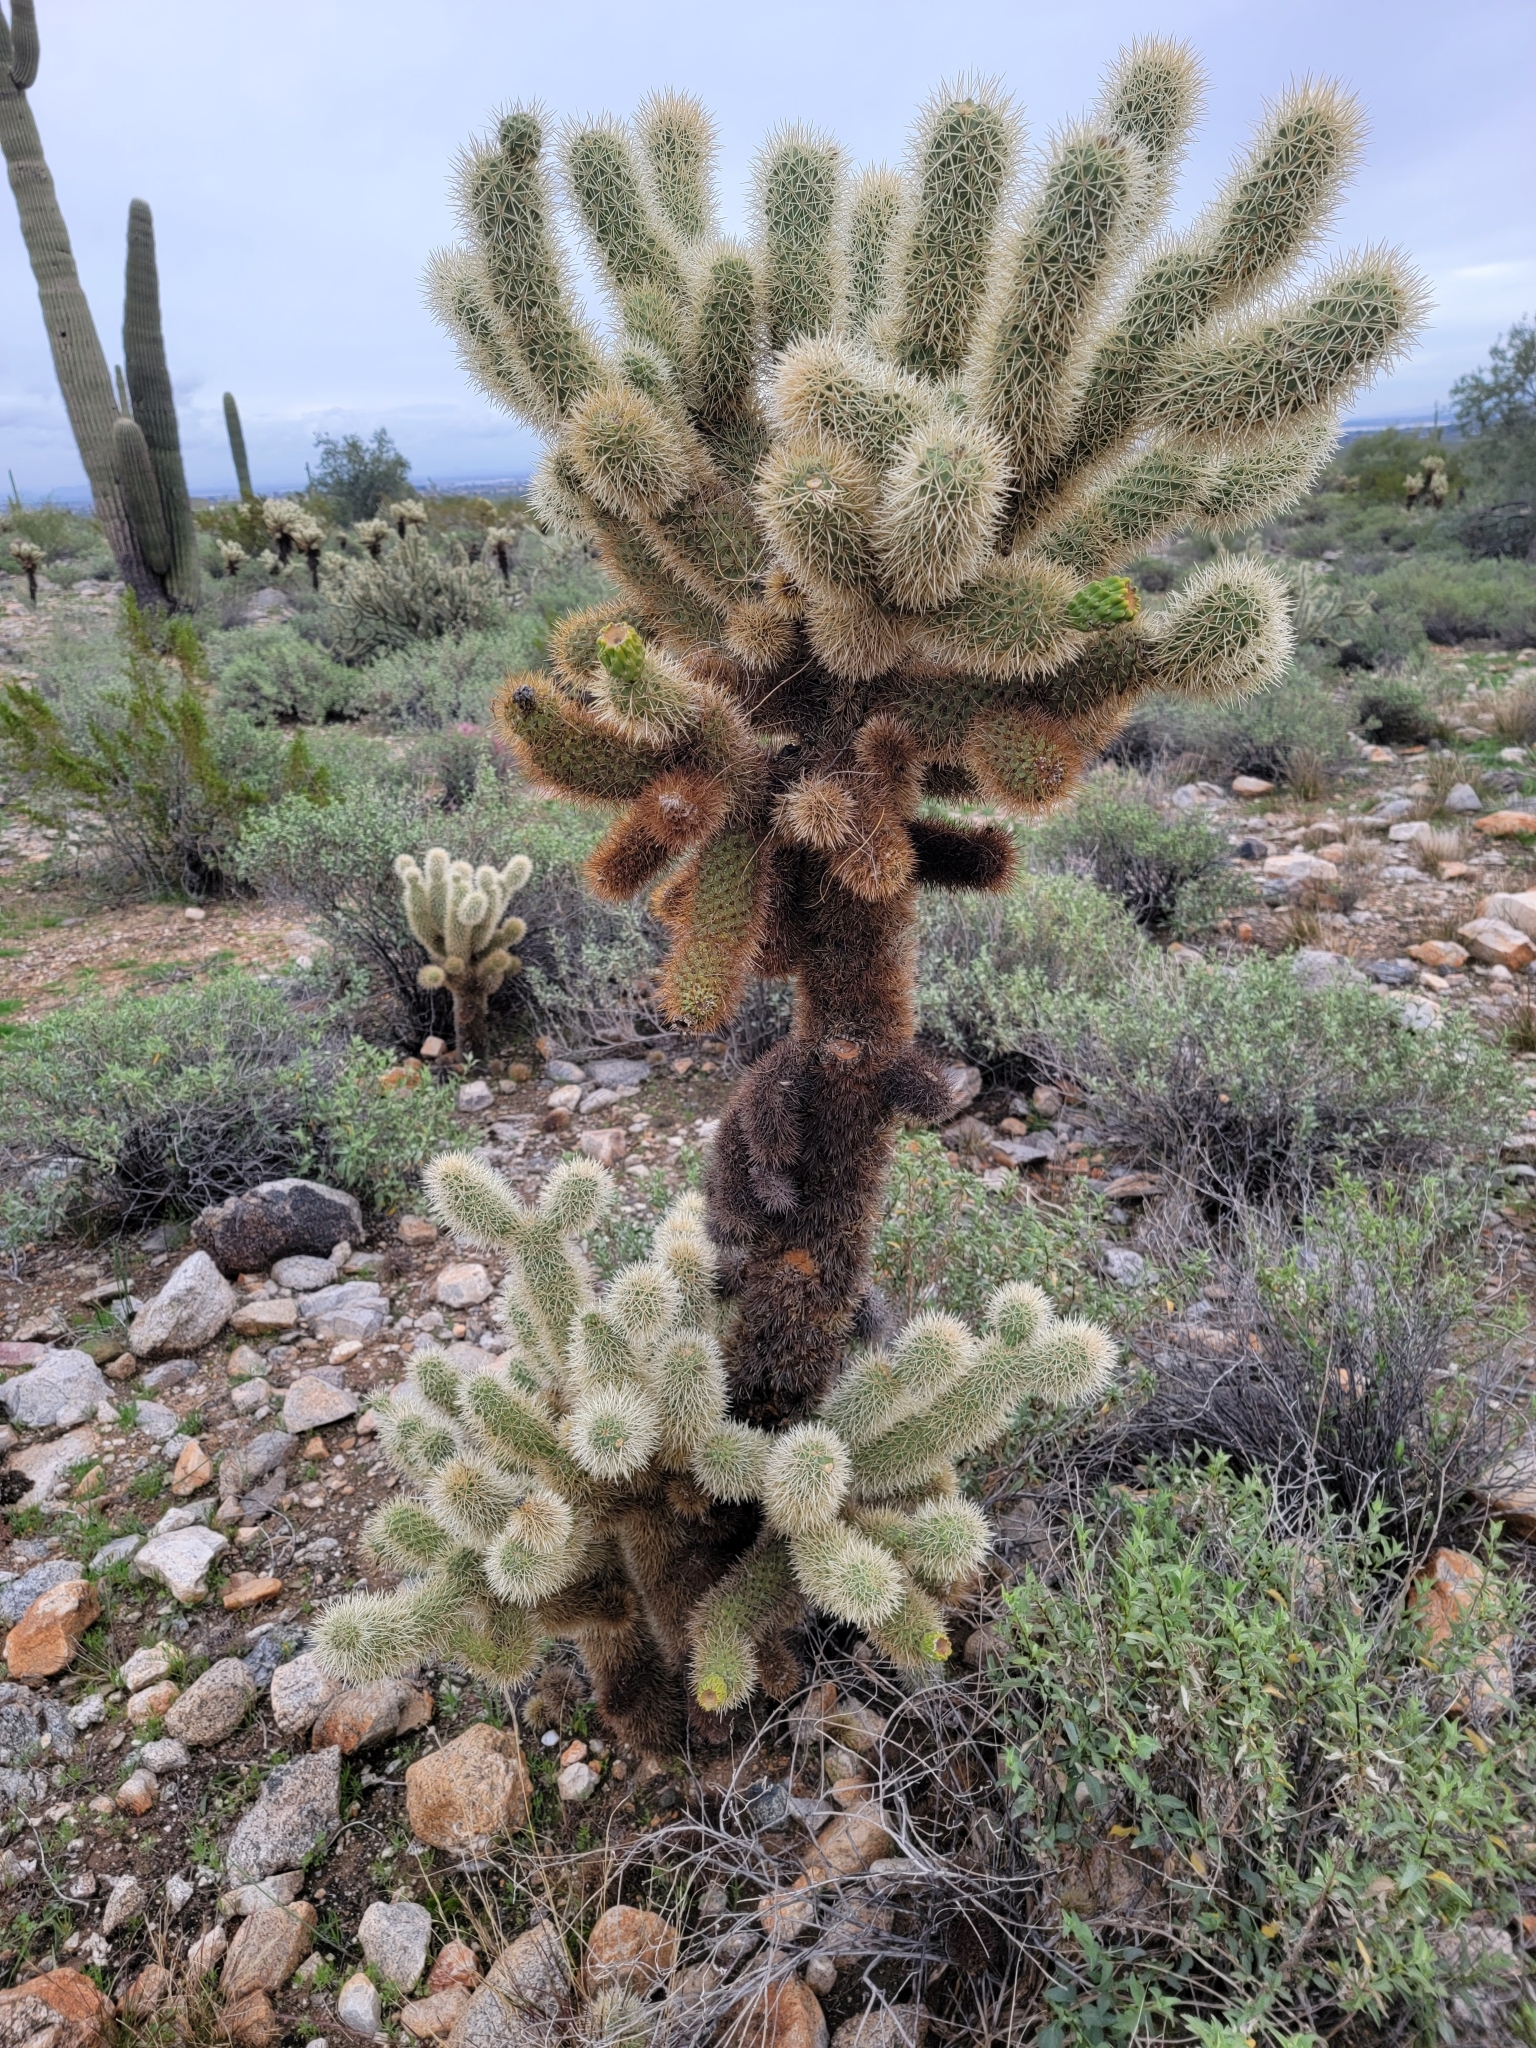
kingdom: Plantae
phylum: Tracheophyta
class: Magnoliopsida
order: Caryophyllales
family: Cactaceae
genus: Cylindropuntia
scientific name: Cylindropuntia fosbergii
